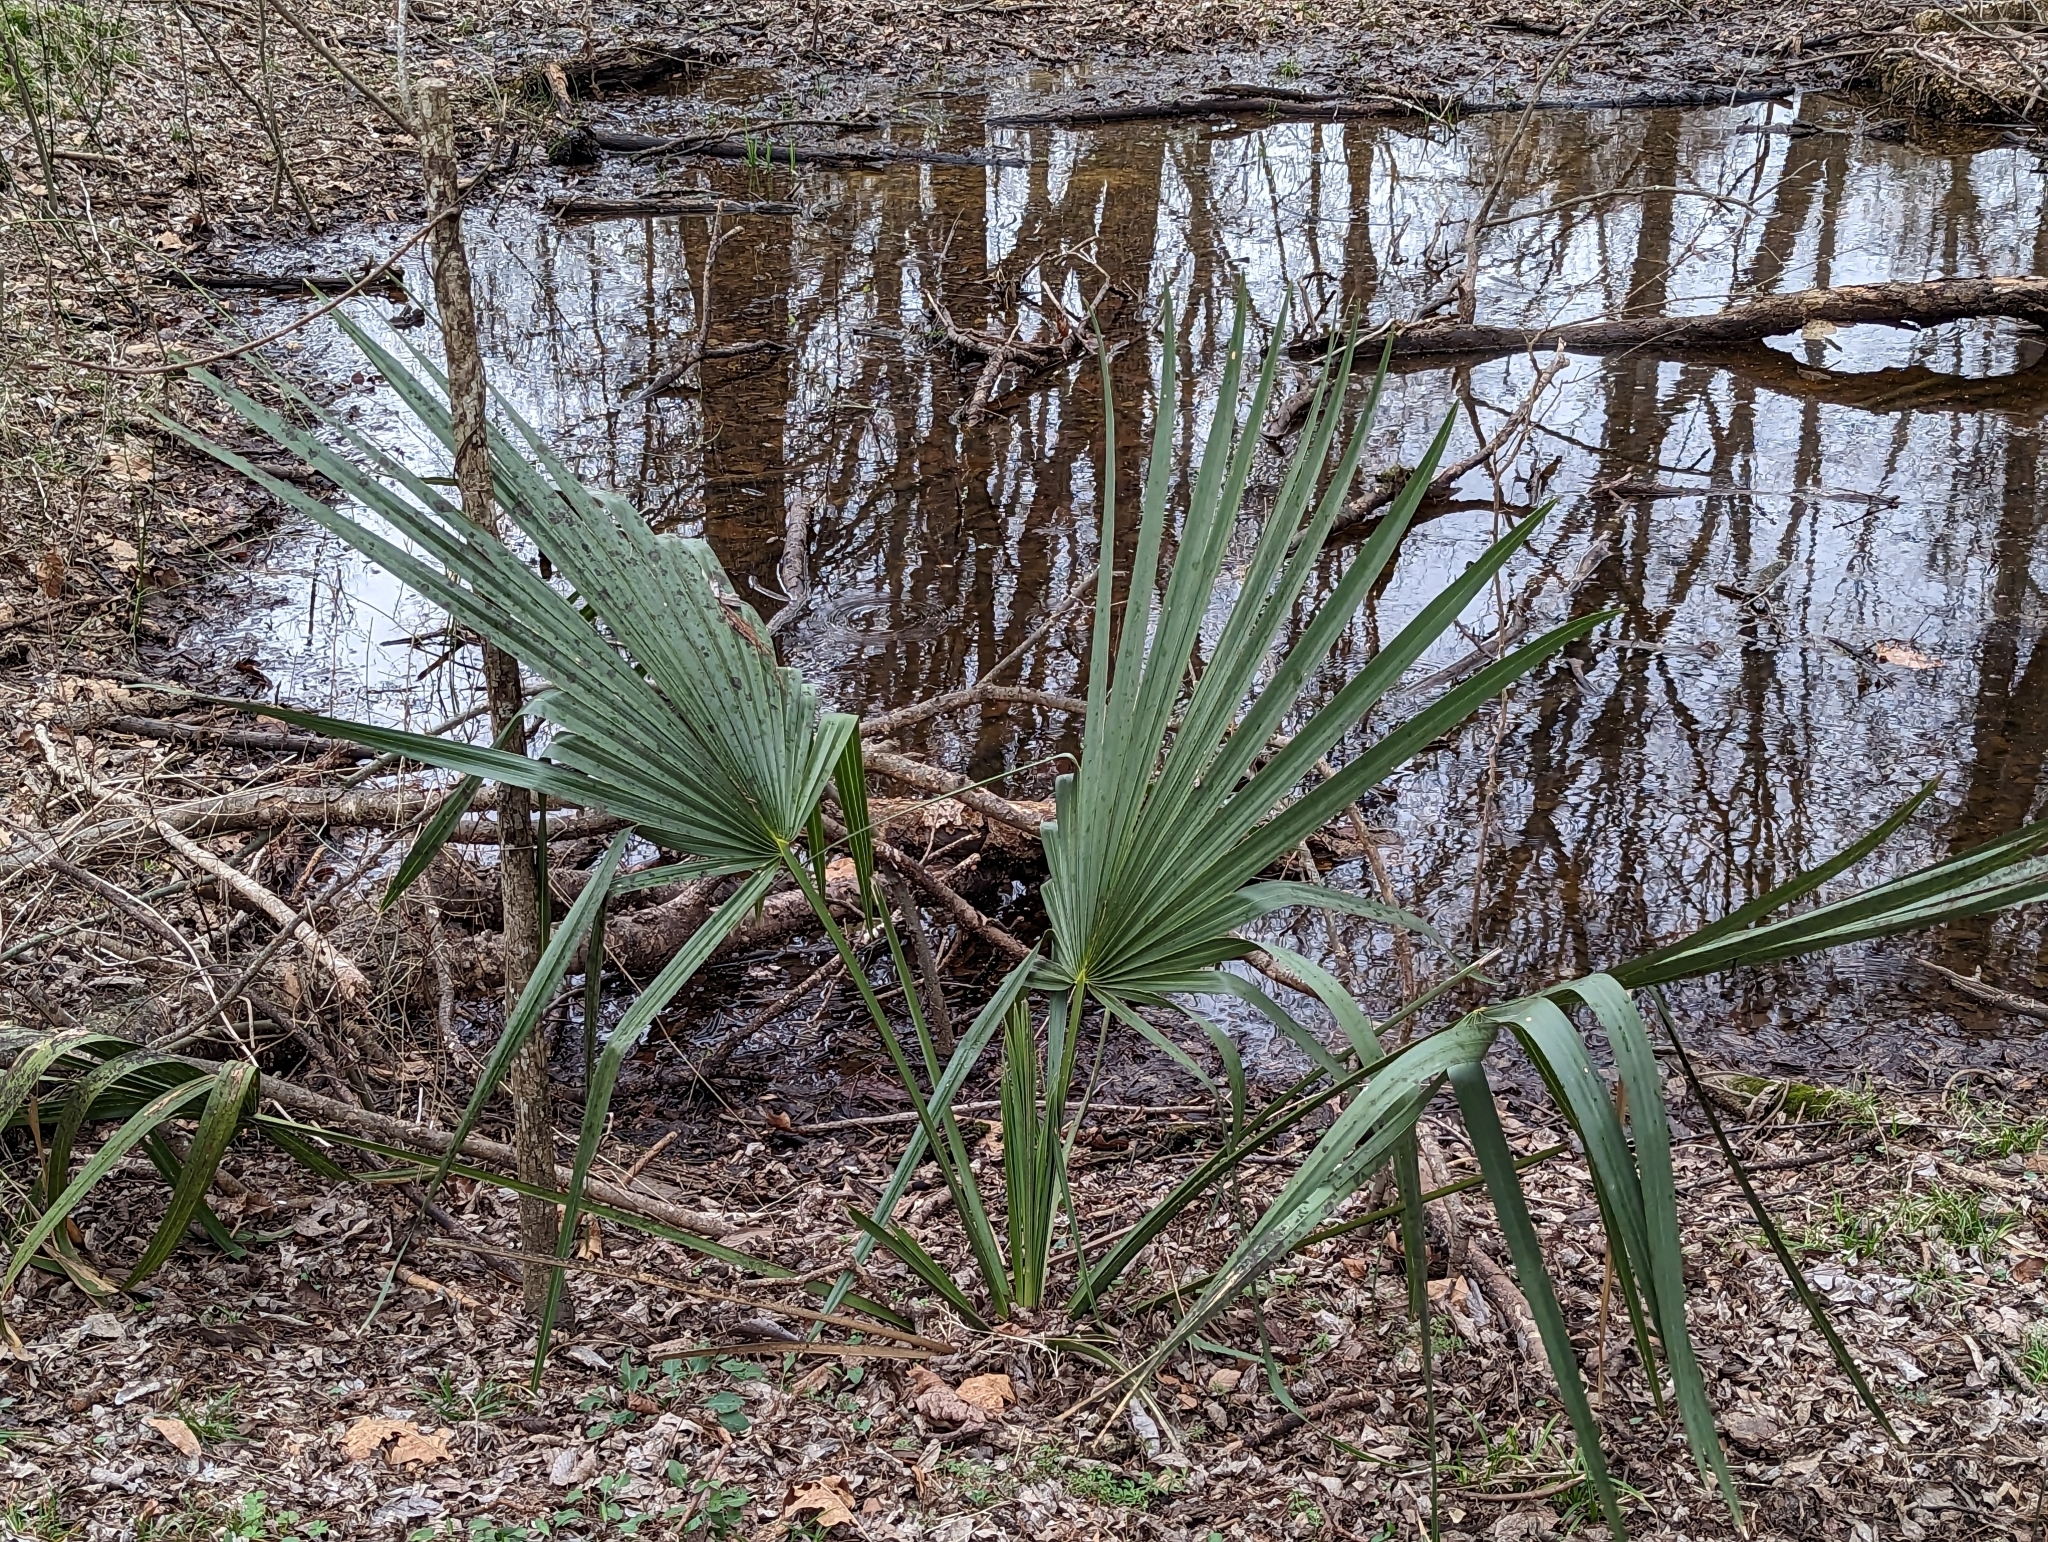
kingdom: Plantae
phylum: Tracheophyta
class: Liliopsida
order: Arecales
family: Arecaceae
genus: Sabal
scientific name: Sabal minor
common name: Dwarf palmetto
